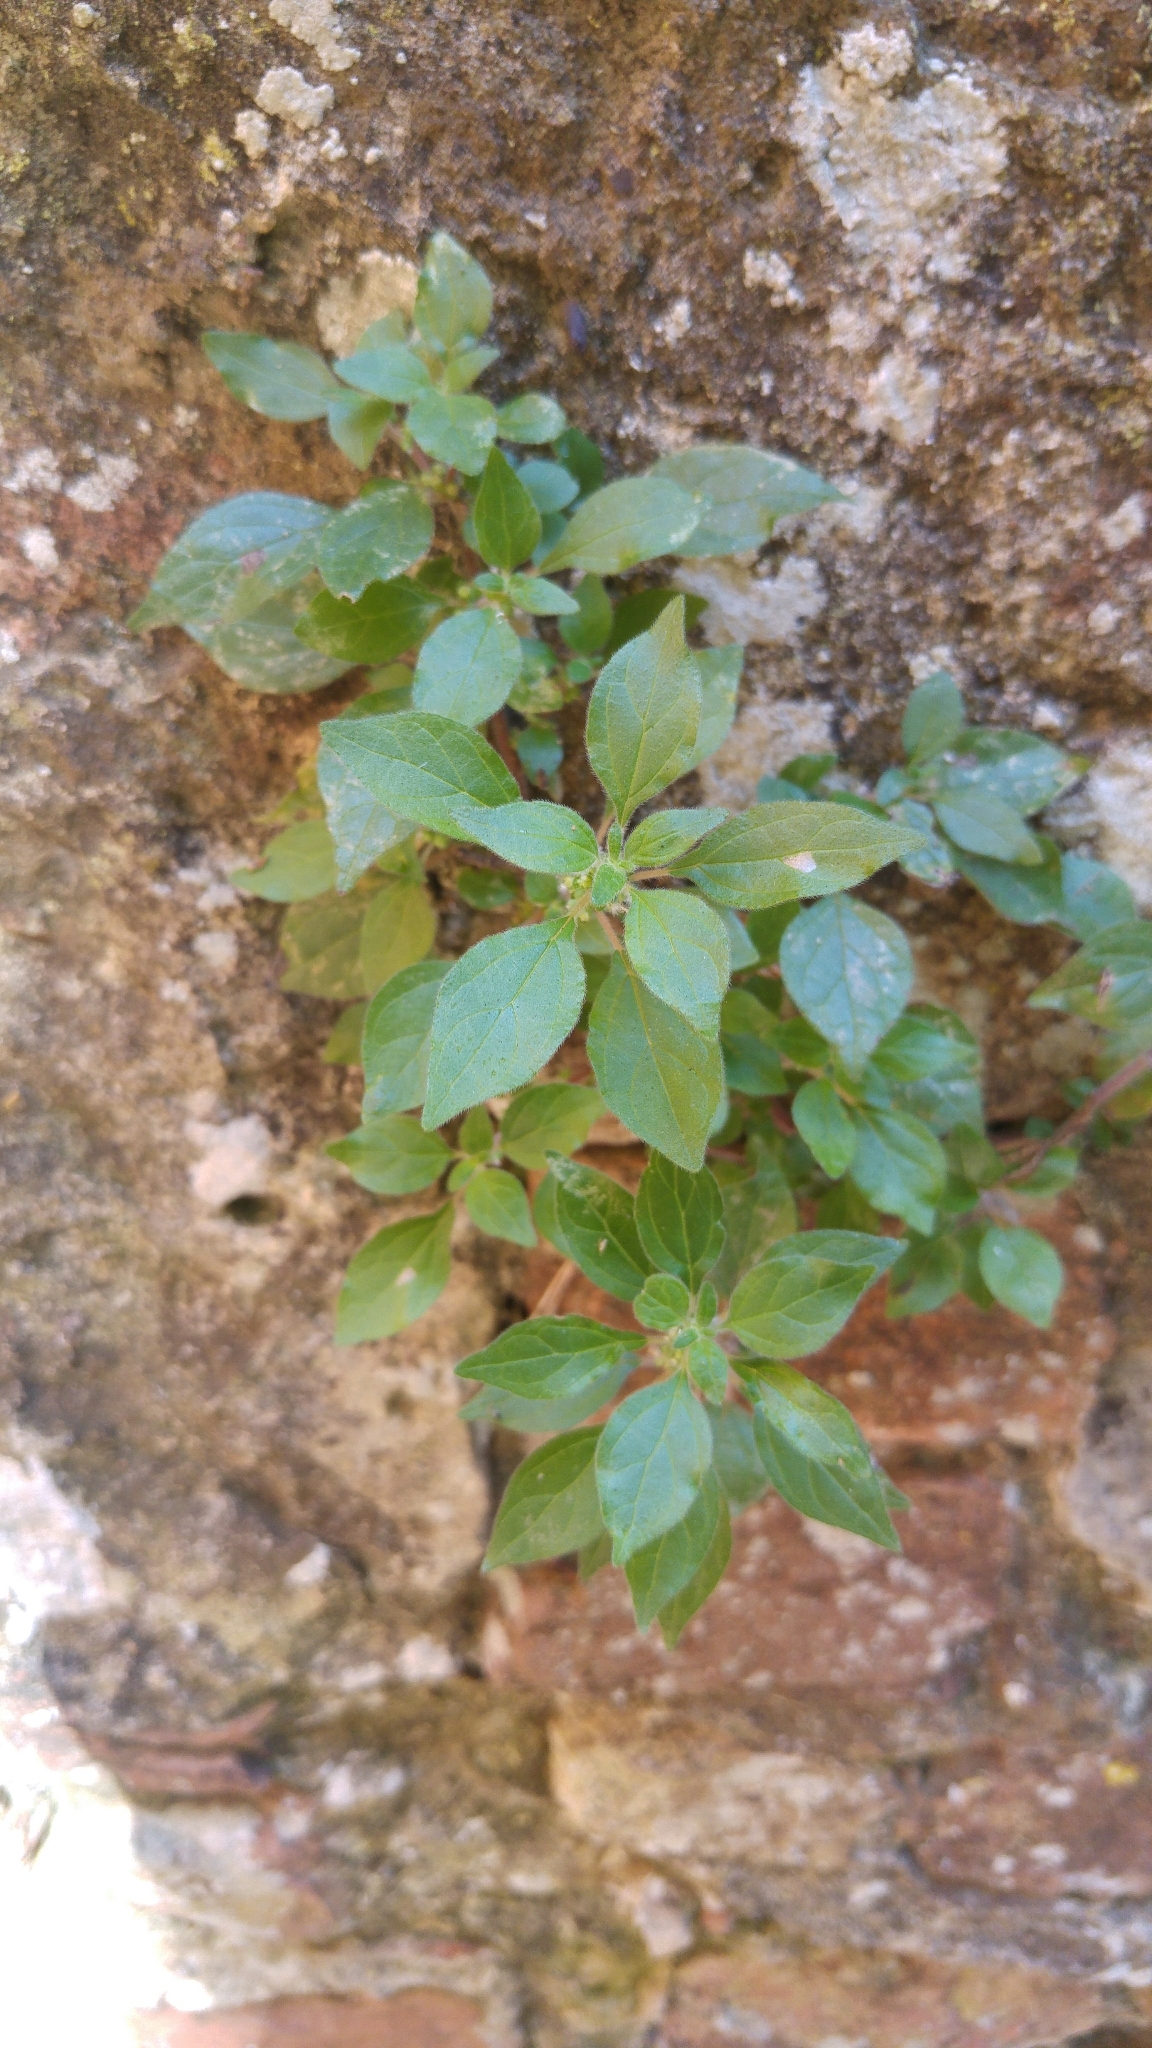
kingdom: Plantae
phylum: Tracheophyta
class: Magnoliopsida
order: Rosales
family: Urticaceae
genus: Parietaria
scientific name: Parietaria judaica
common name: Pellitory-of-the-wall
